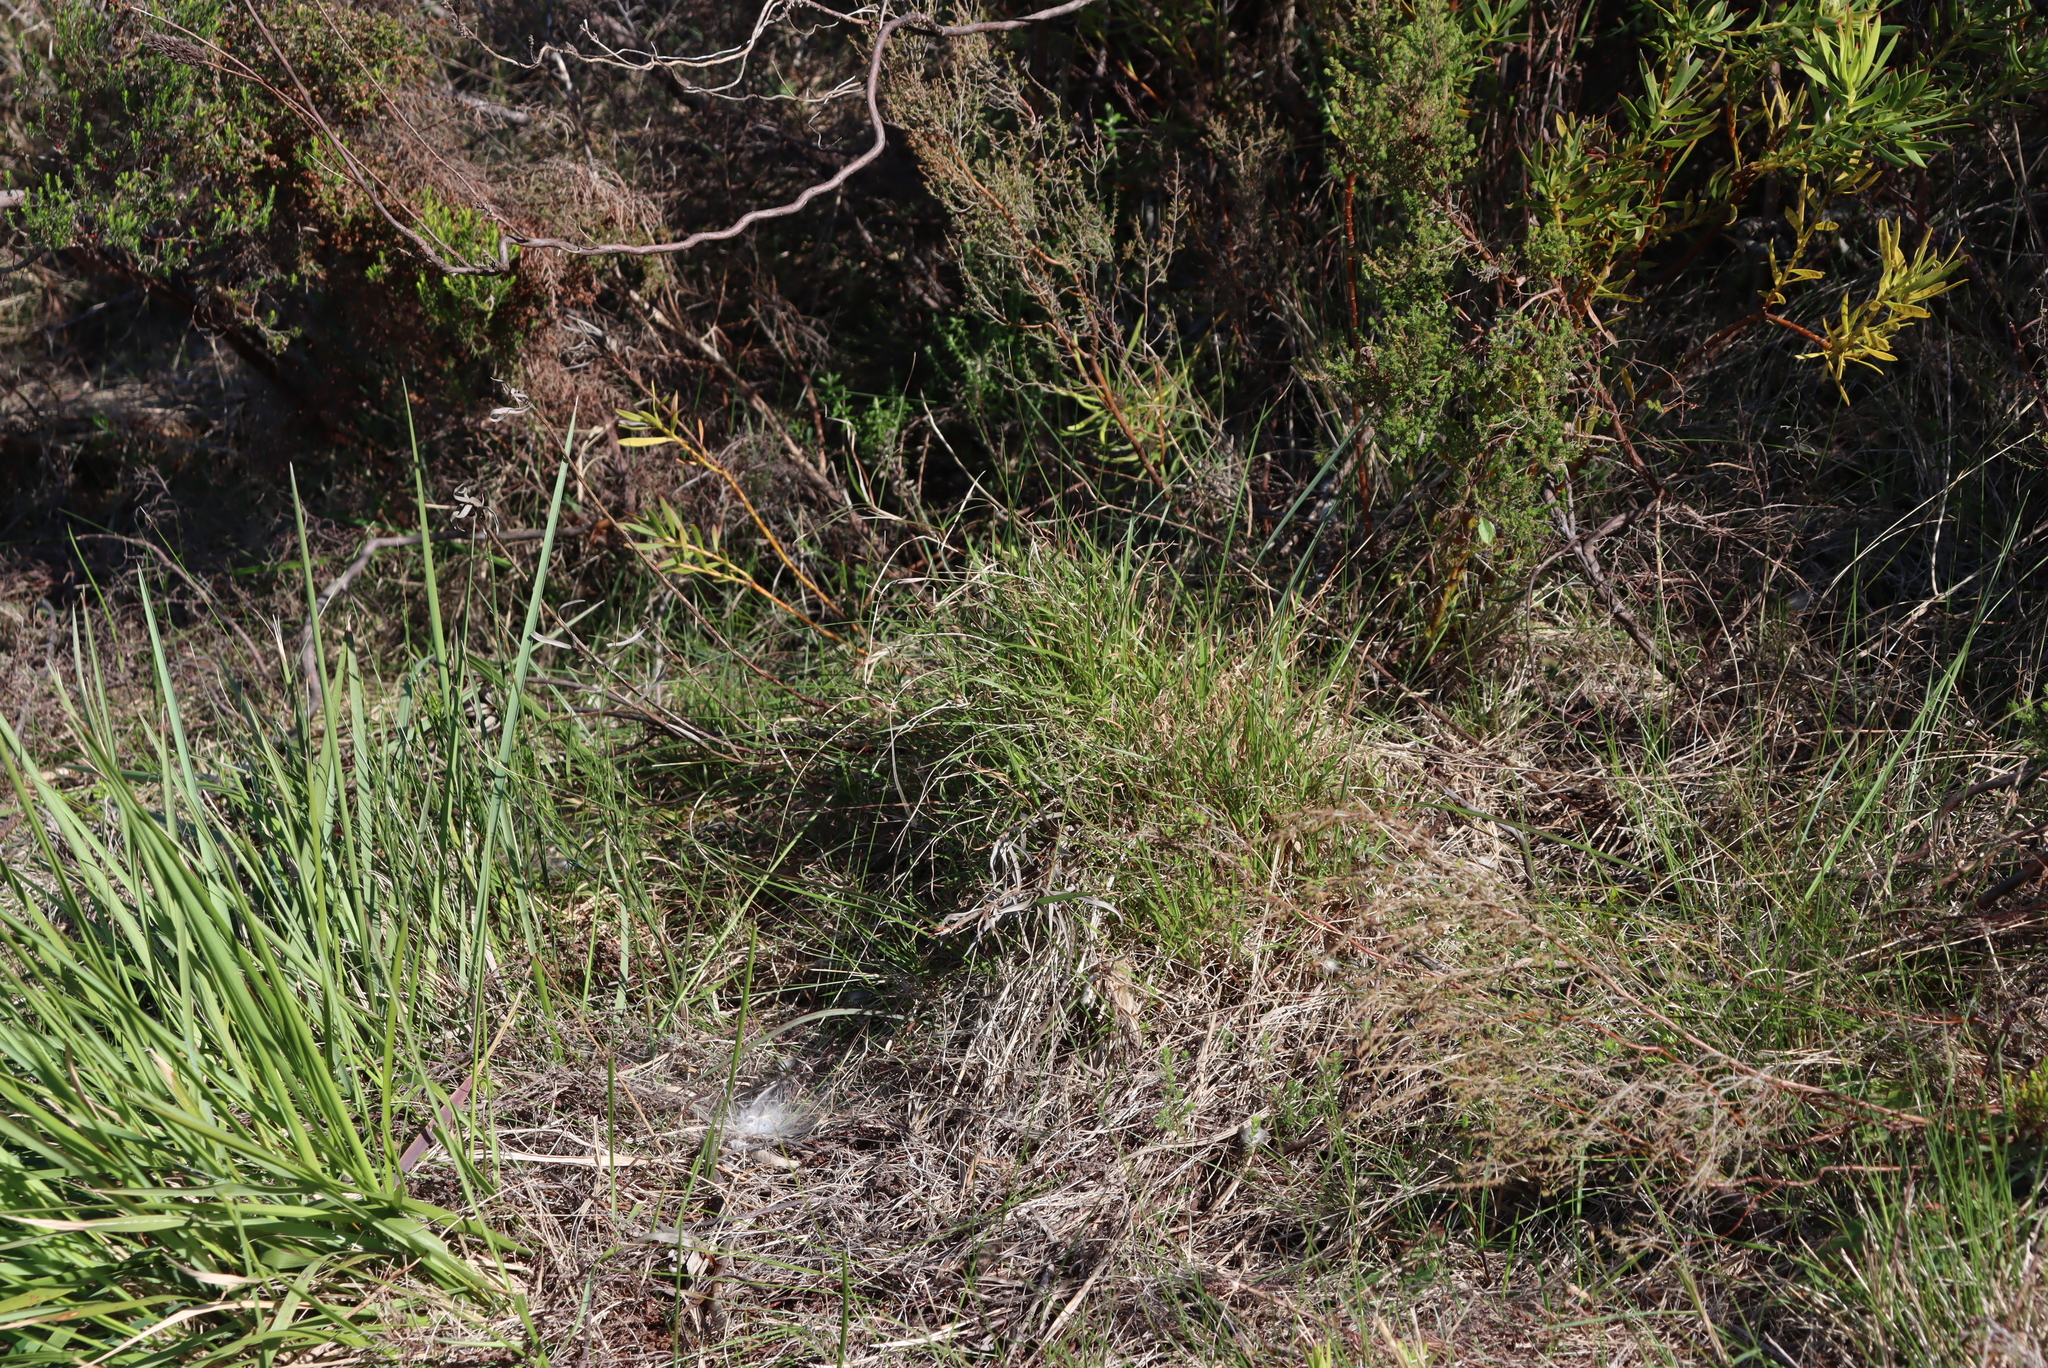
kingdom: Plantae
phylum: Tracheophyta
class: Liliopsida
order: Poales
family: Poaceae
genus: Cenchrus
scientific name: Cenchrus clandestinus
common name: Kikuyugrass
